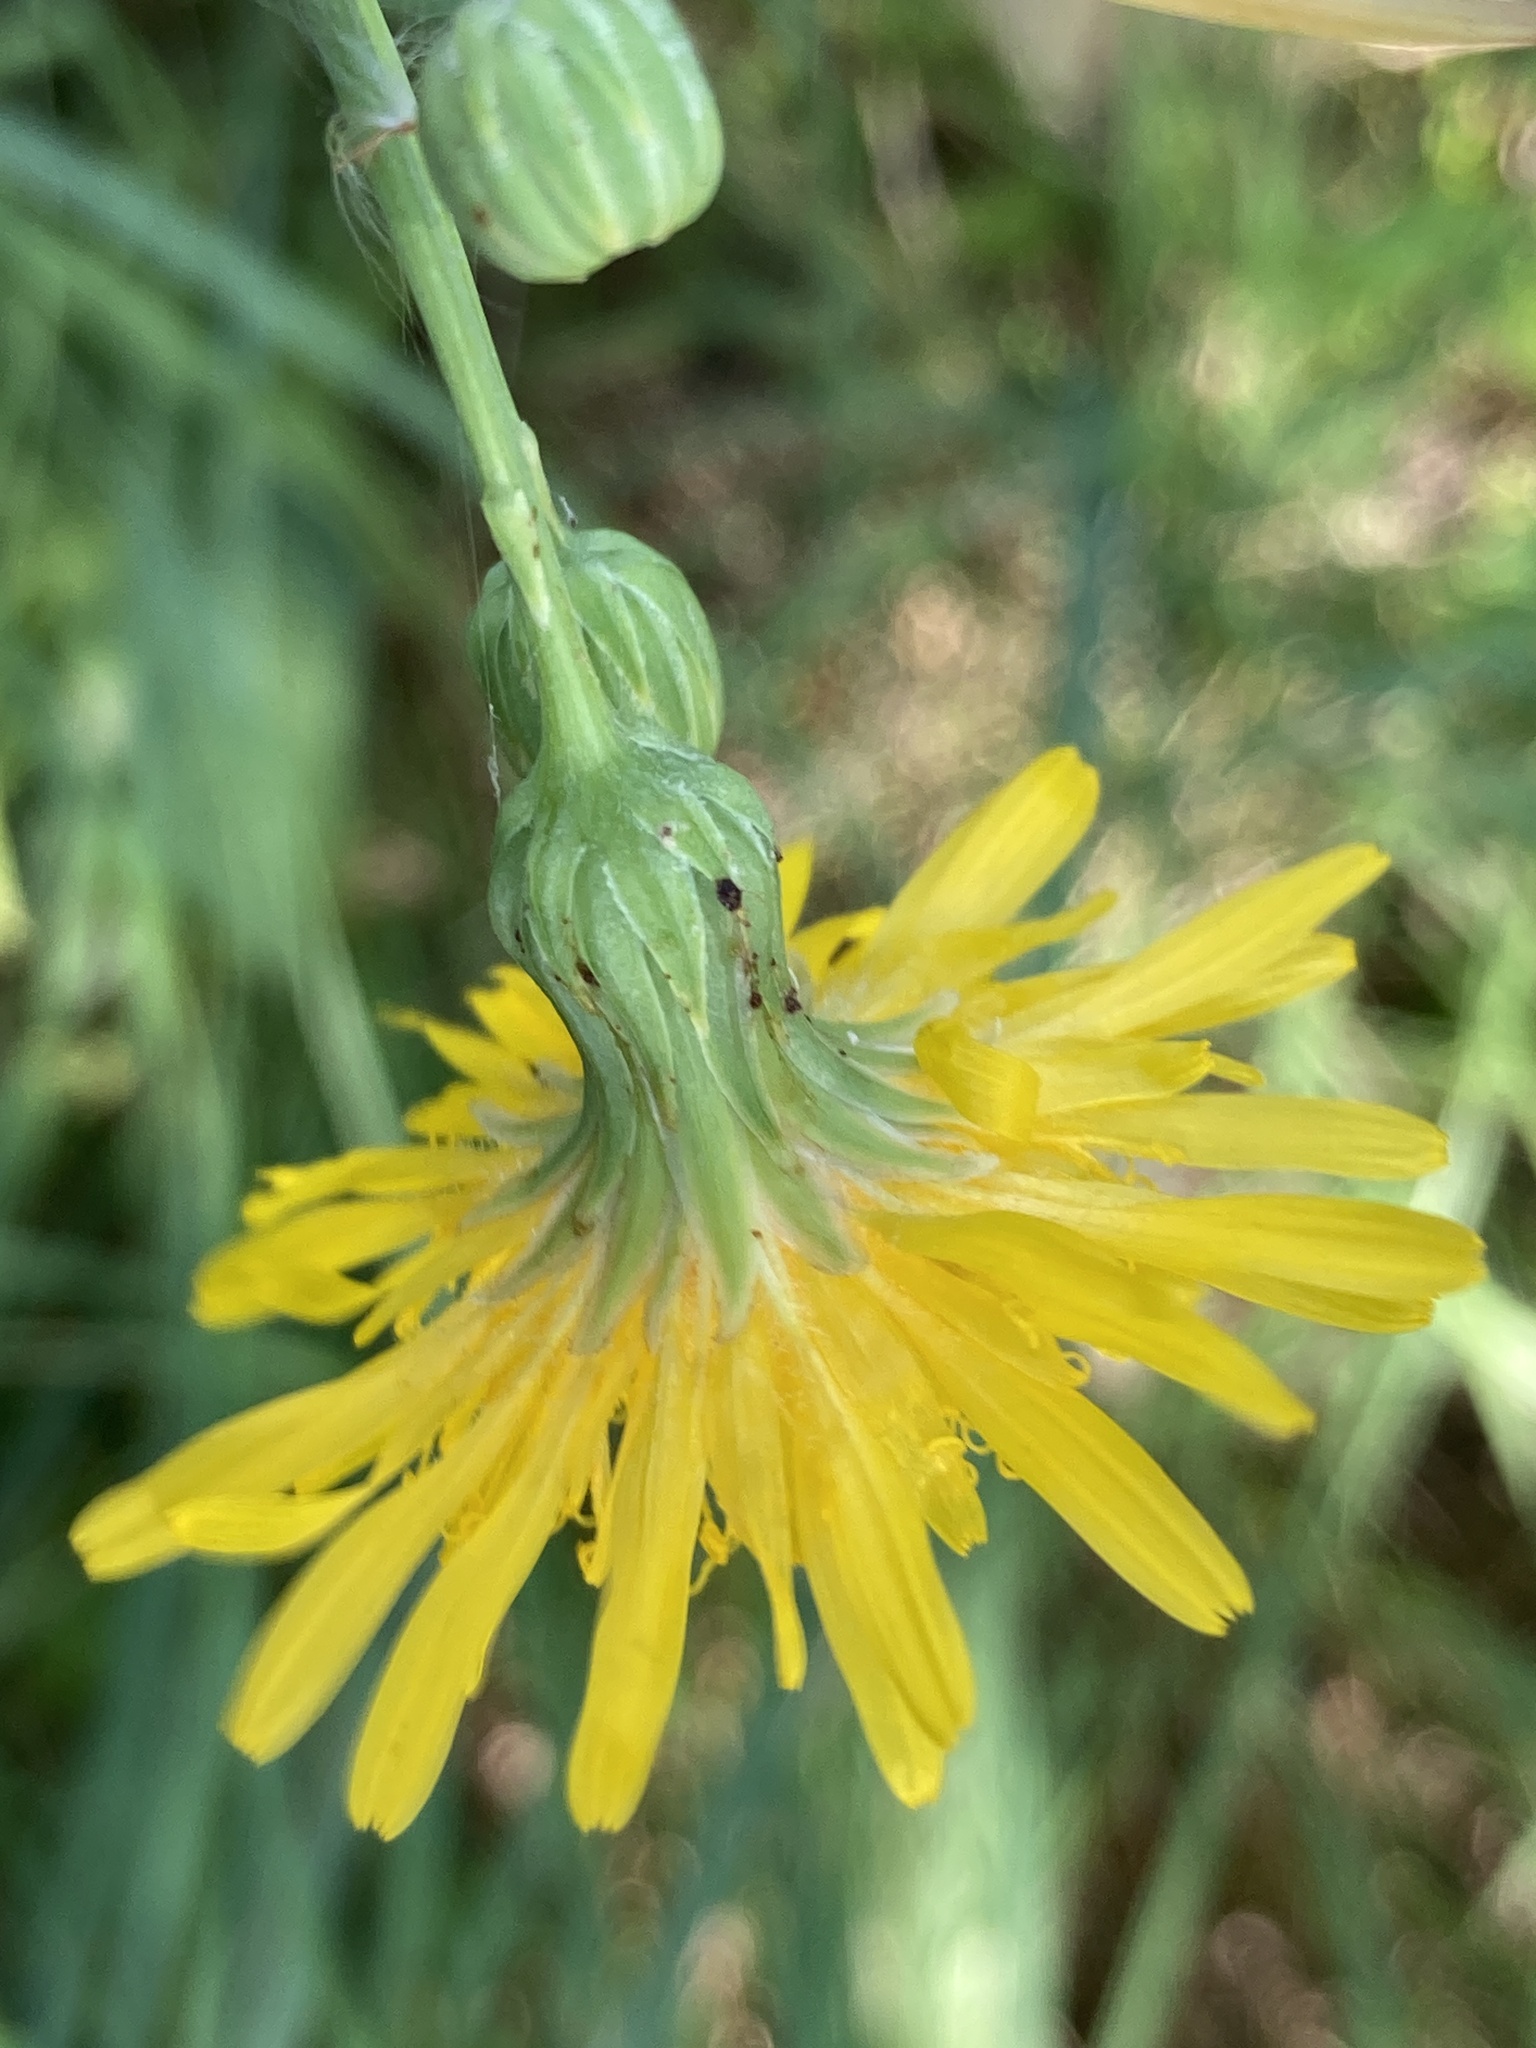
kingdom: Plantae
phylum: Tracheophyta
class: Magnoliopsida
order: Asterales
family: Asteraceae
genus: Sonchus
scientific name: Sonchus arvensis
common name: Perennial sow-thistle
